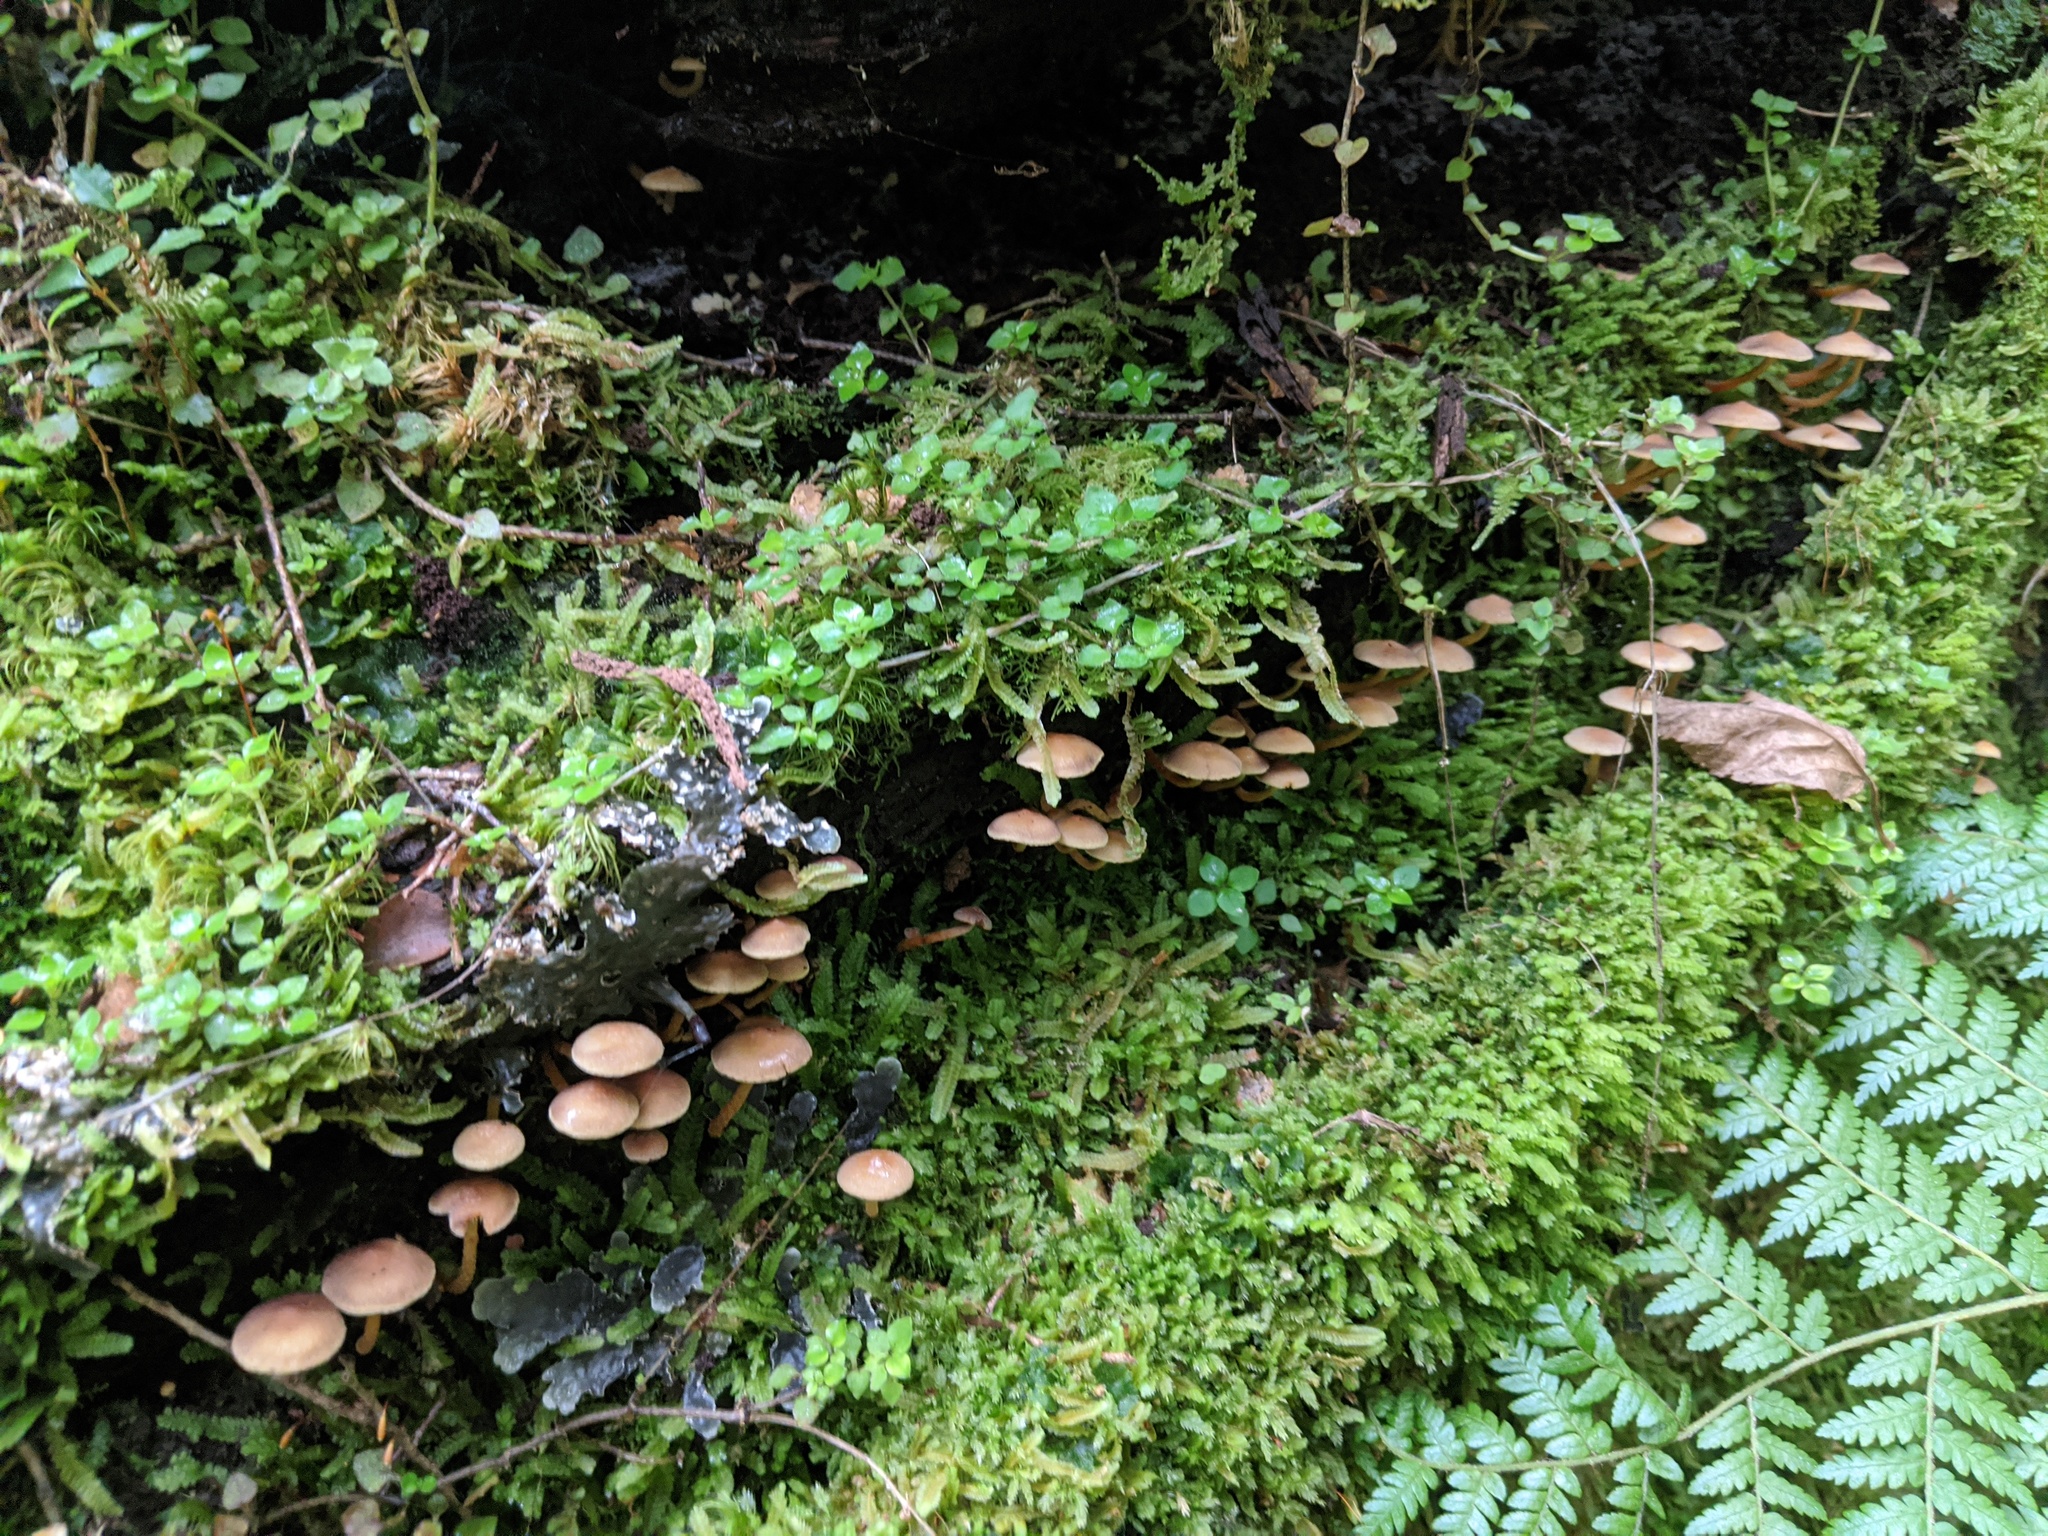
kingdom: Fungi
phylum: Basidiomycota
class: Agaricomycetes
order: Agaricales
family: Strophariaceae
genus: Hypholoma
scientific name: Hypholoma acutum
